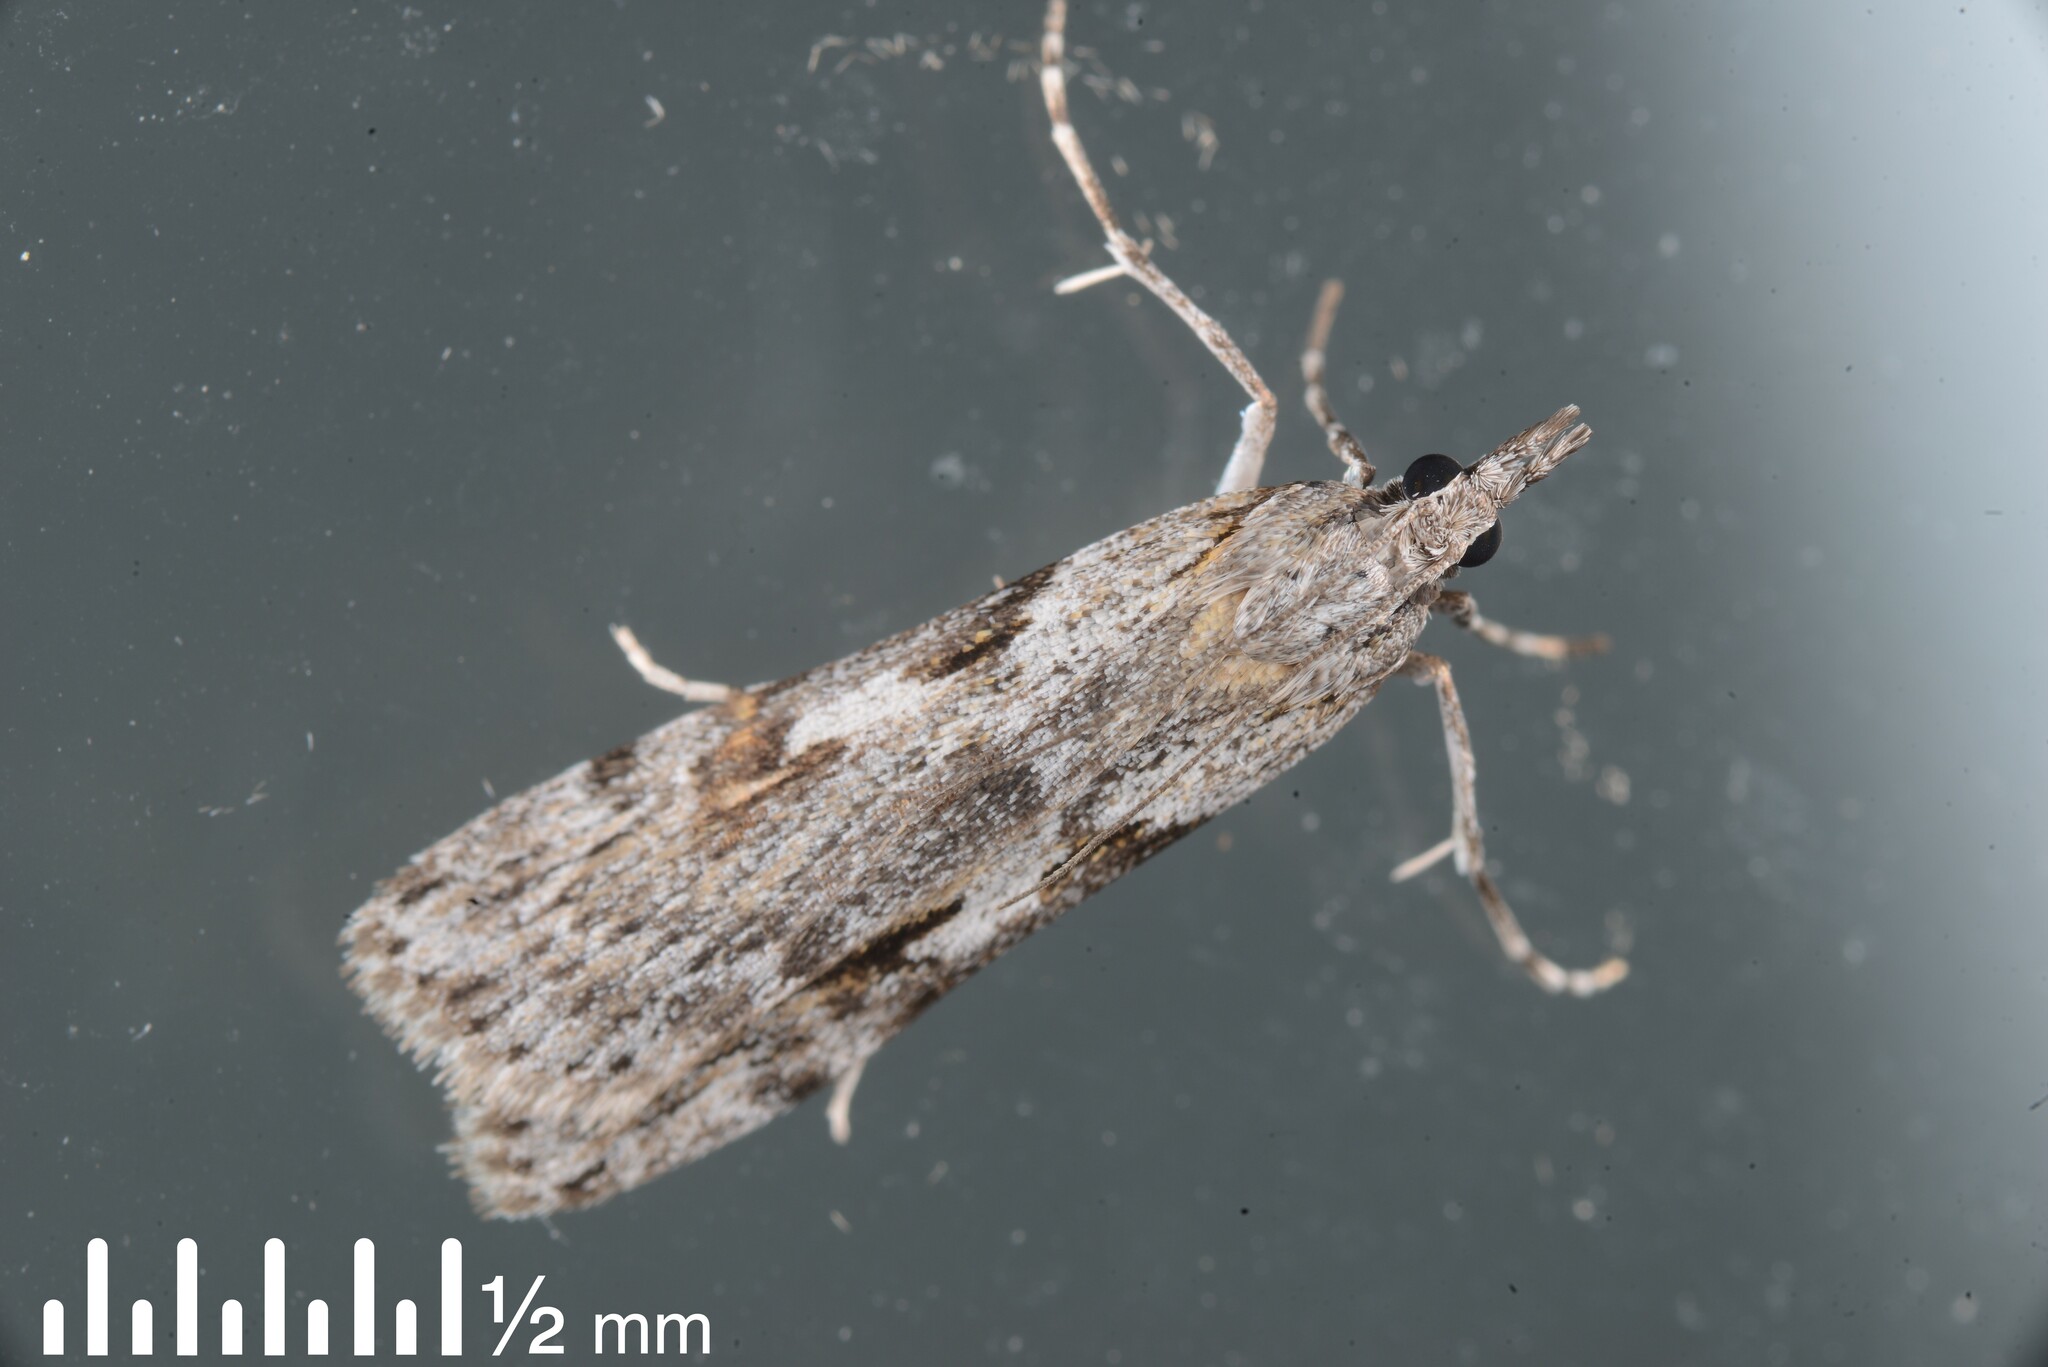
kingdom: Animalia
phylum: Arthropoda
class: Insecta
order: Lepidoptera
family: Crambidae
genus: Scoparia
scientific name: Scoparia halopis
